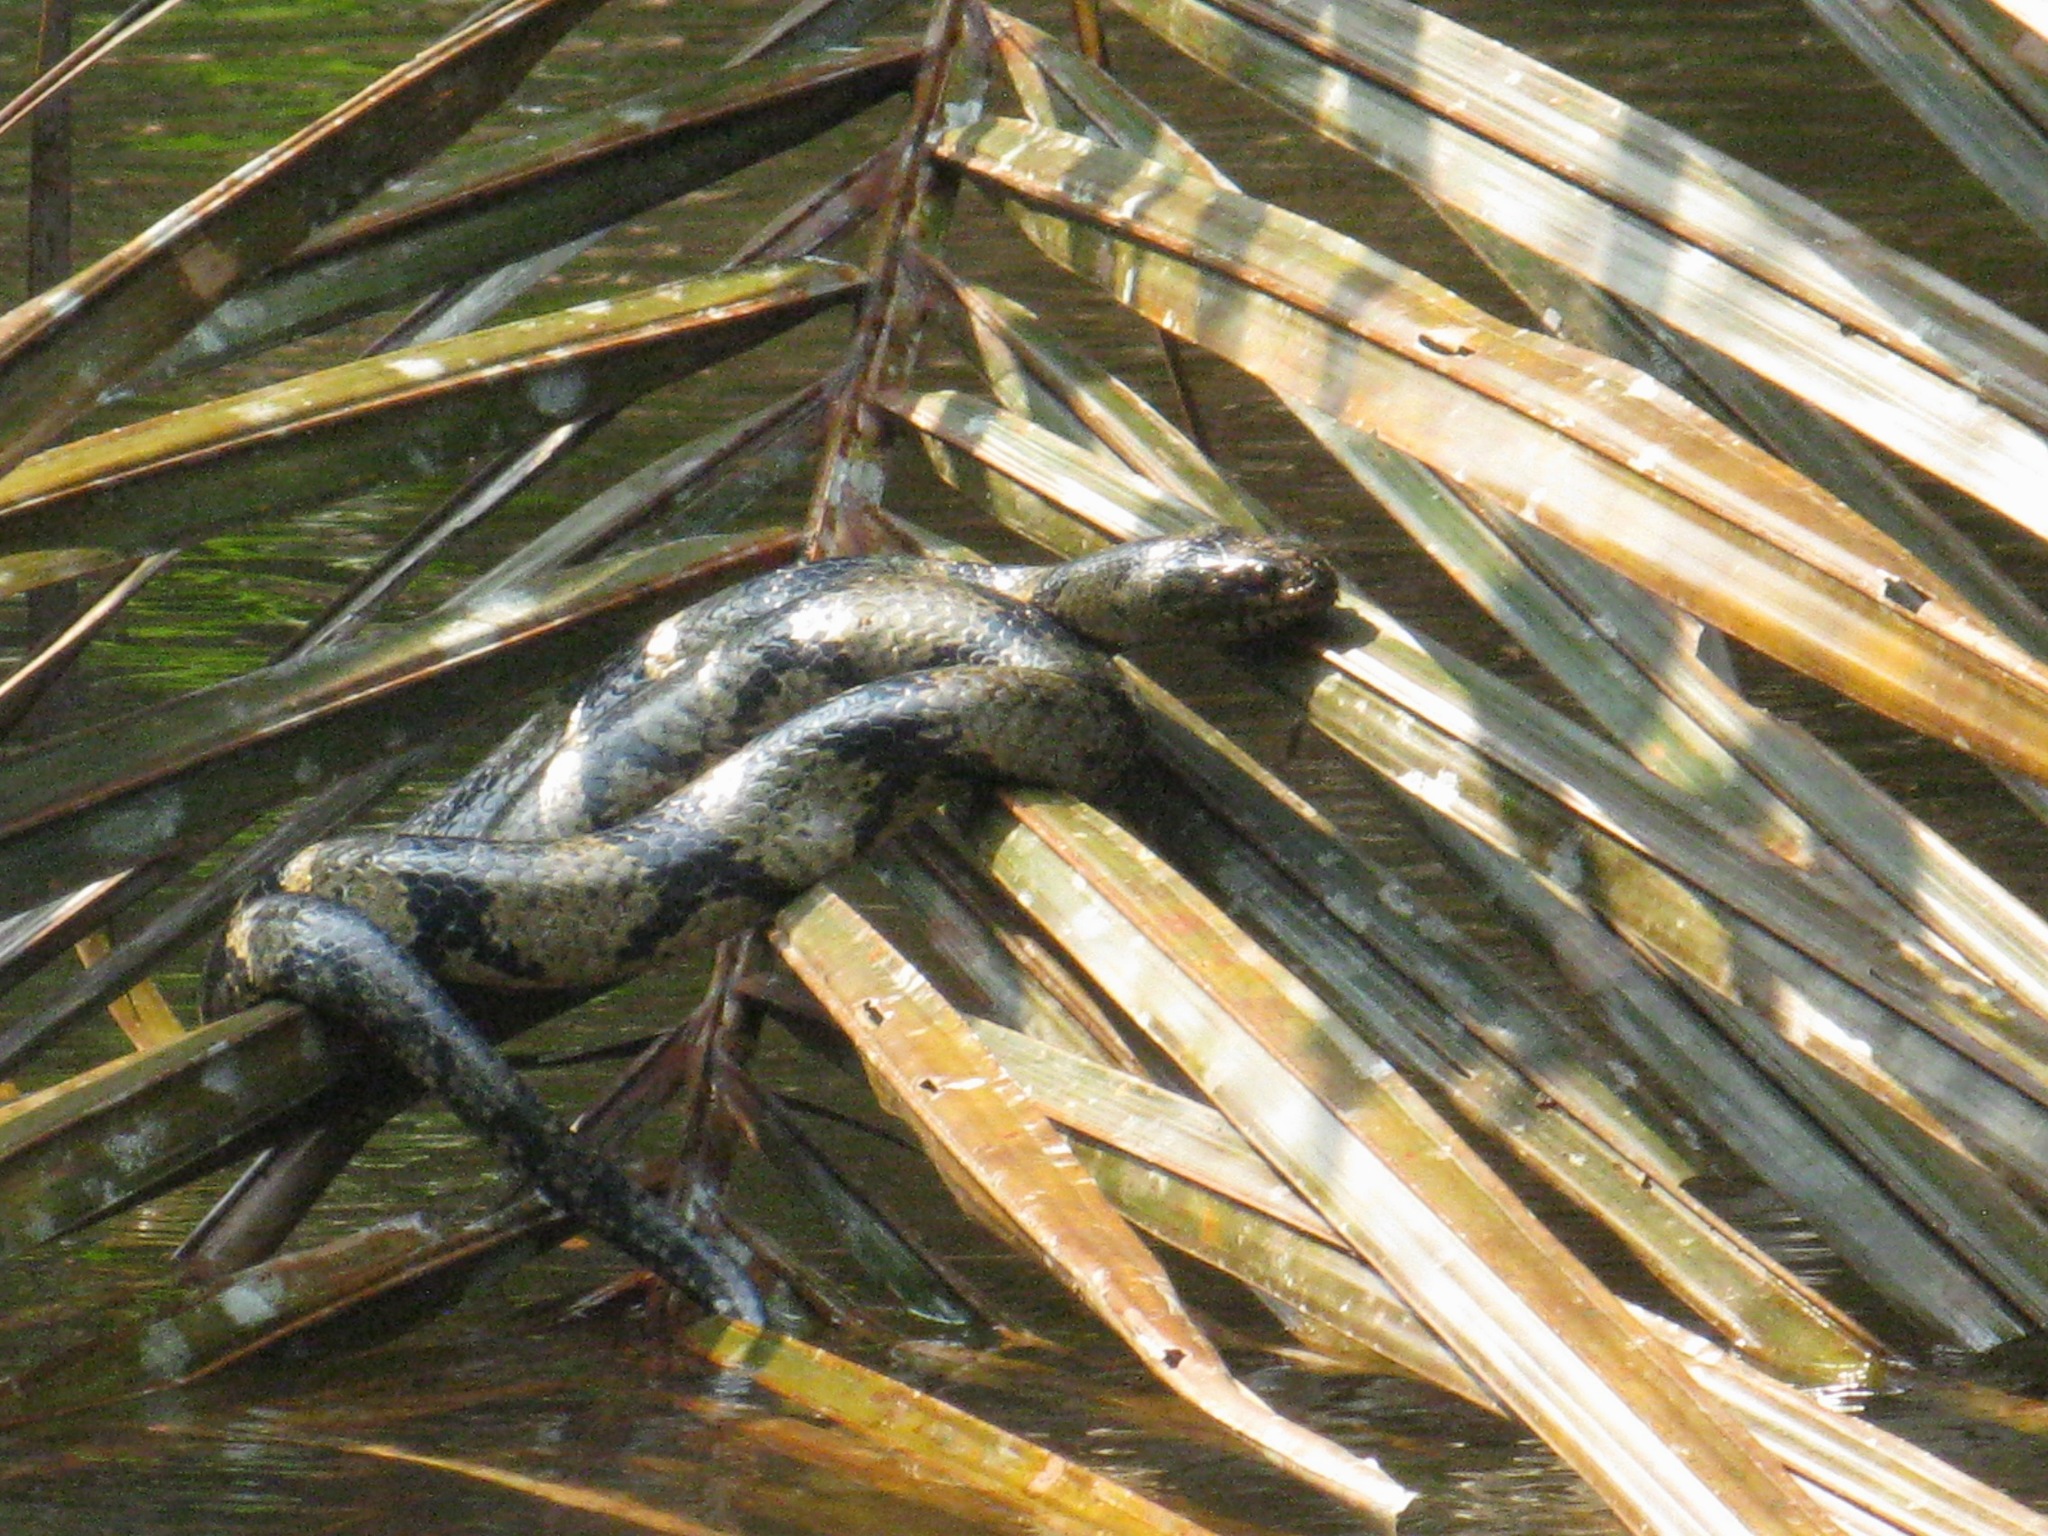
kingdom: Animalia
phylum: Chordata
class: Squamata
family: Colubridae
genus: Grayia
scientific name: Grayia ornata
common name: Ornate african water snake
